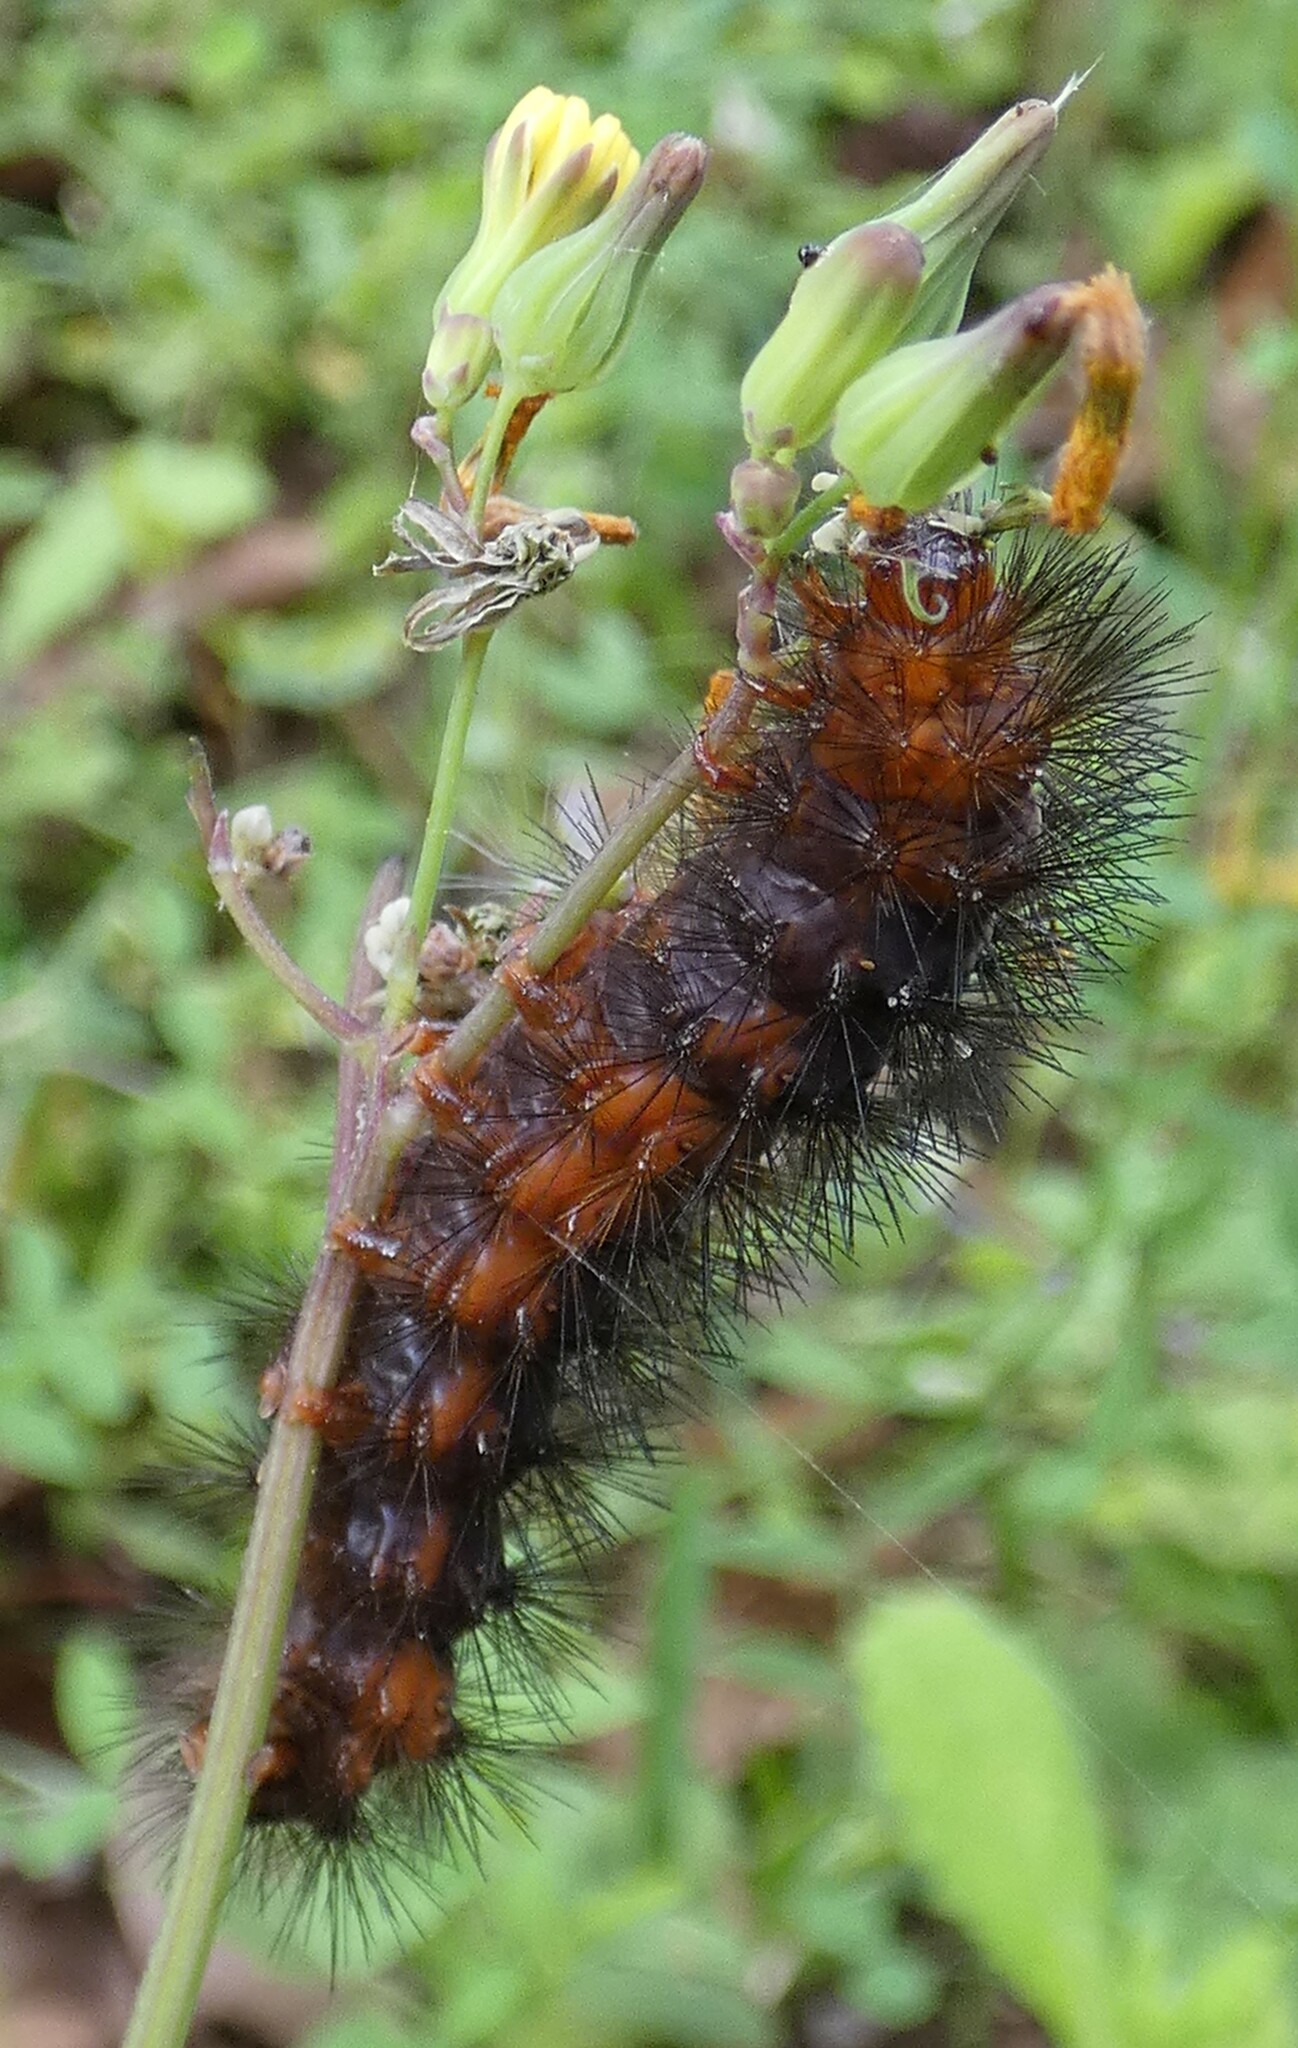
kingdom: Animalia
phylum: Arthropoda
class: Insecta
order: Lepidoptera
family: Erebidae
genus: Hypercompe
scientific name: Hypercompe scribonia
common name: Giant leopard moth
